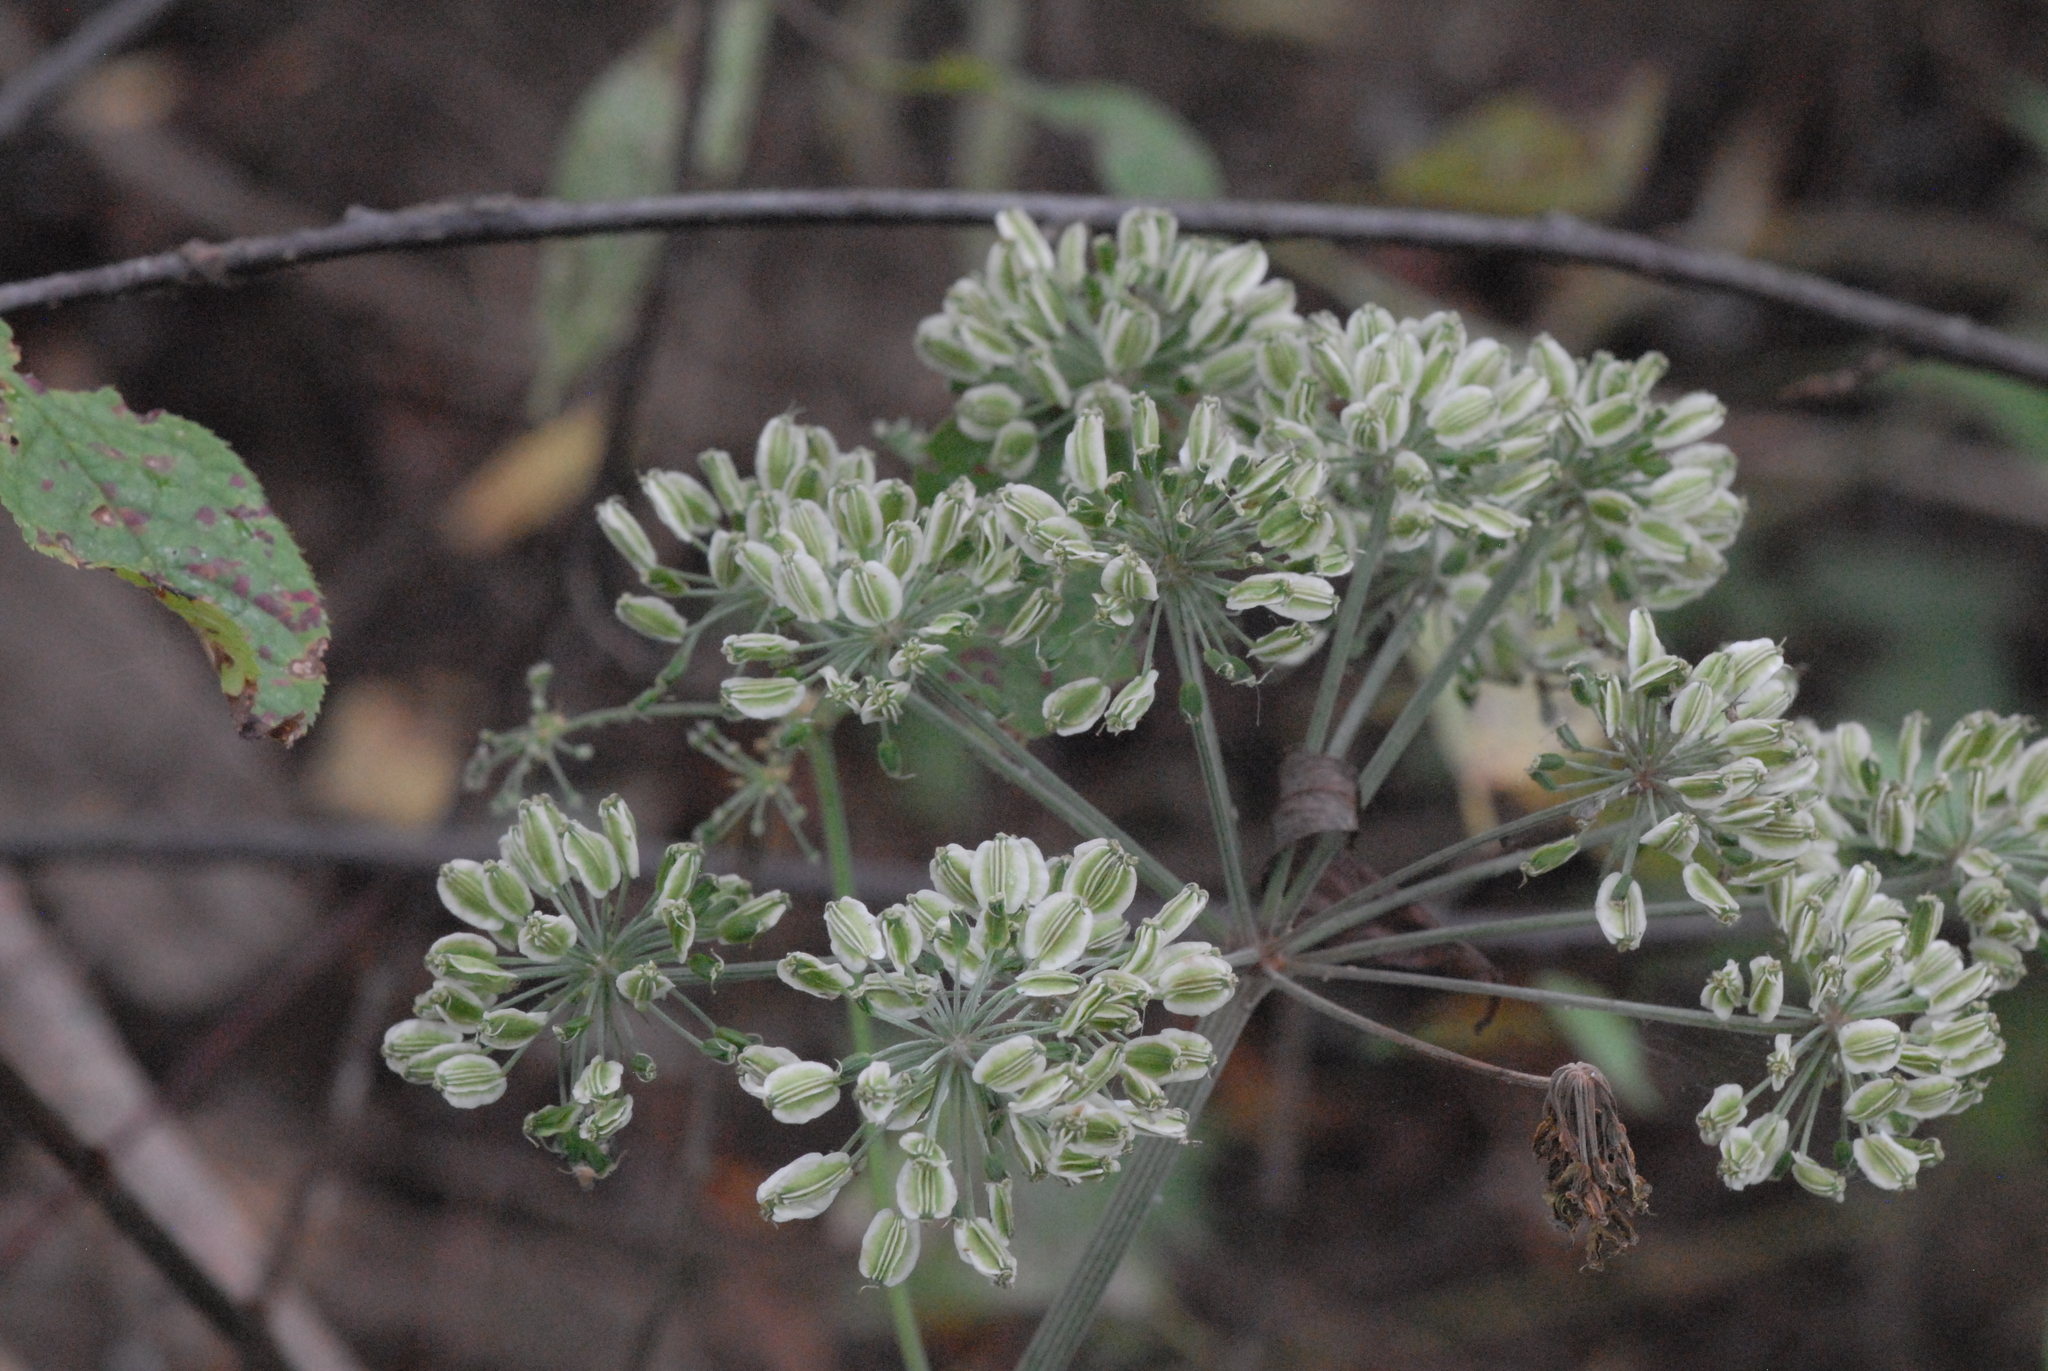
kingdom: Plantae
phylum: Tracheophyta
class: Magnoliopsida
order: Apiales
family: Apiaceae
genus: Angelica
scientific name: Angelica sylvestris
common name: Wild angelica
